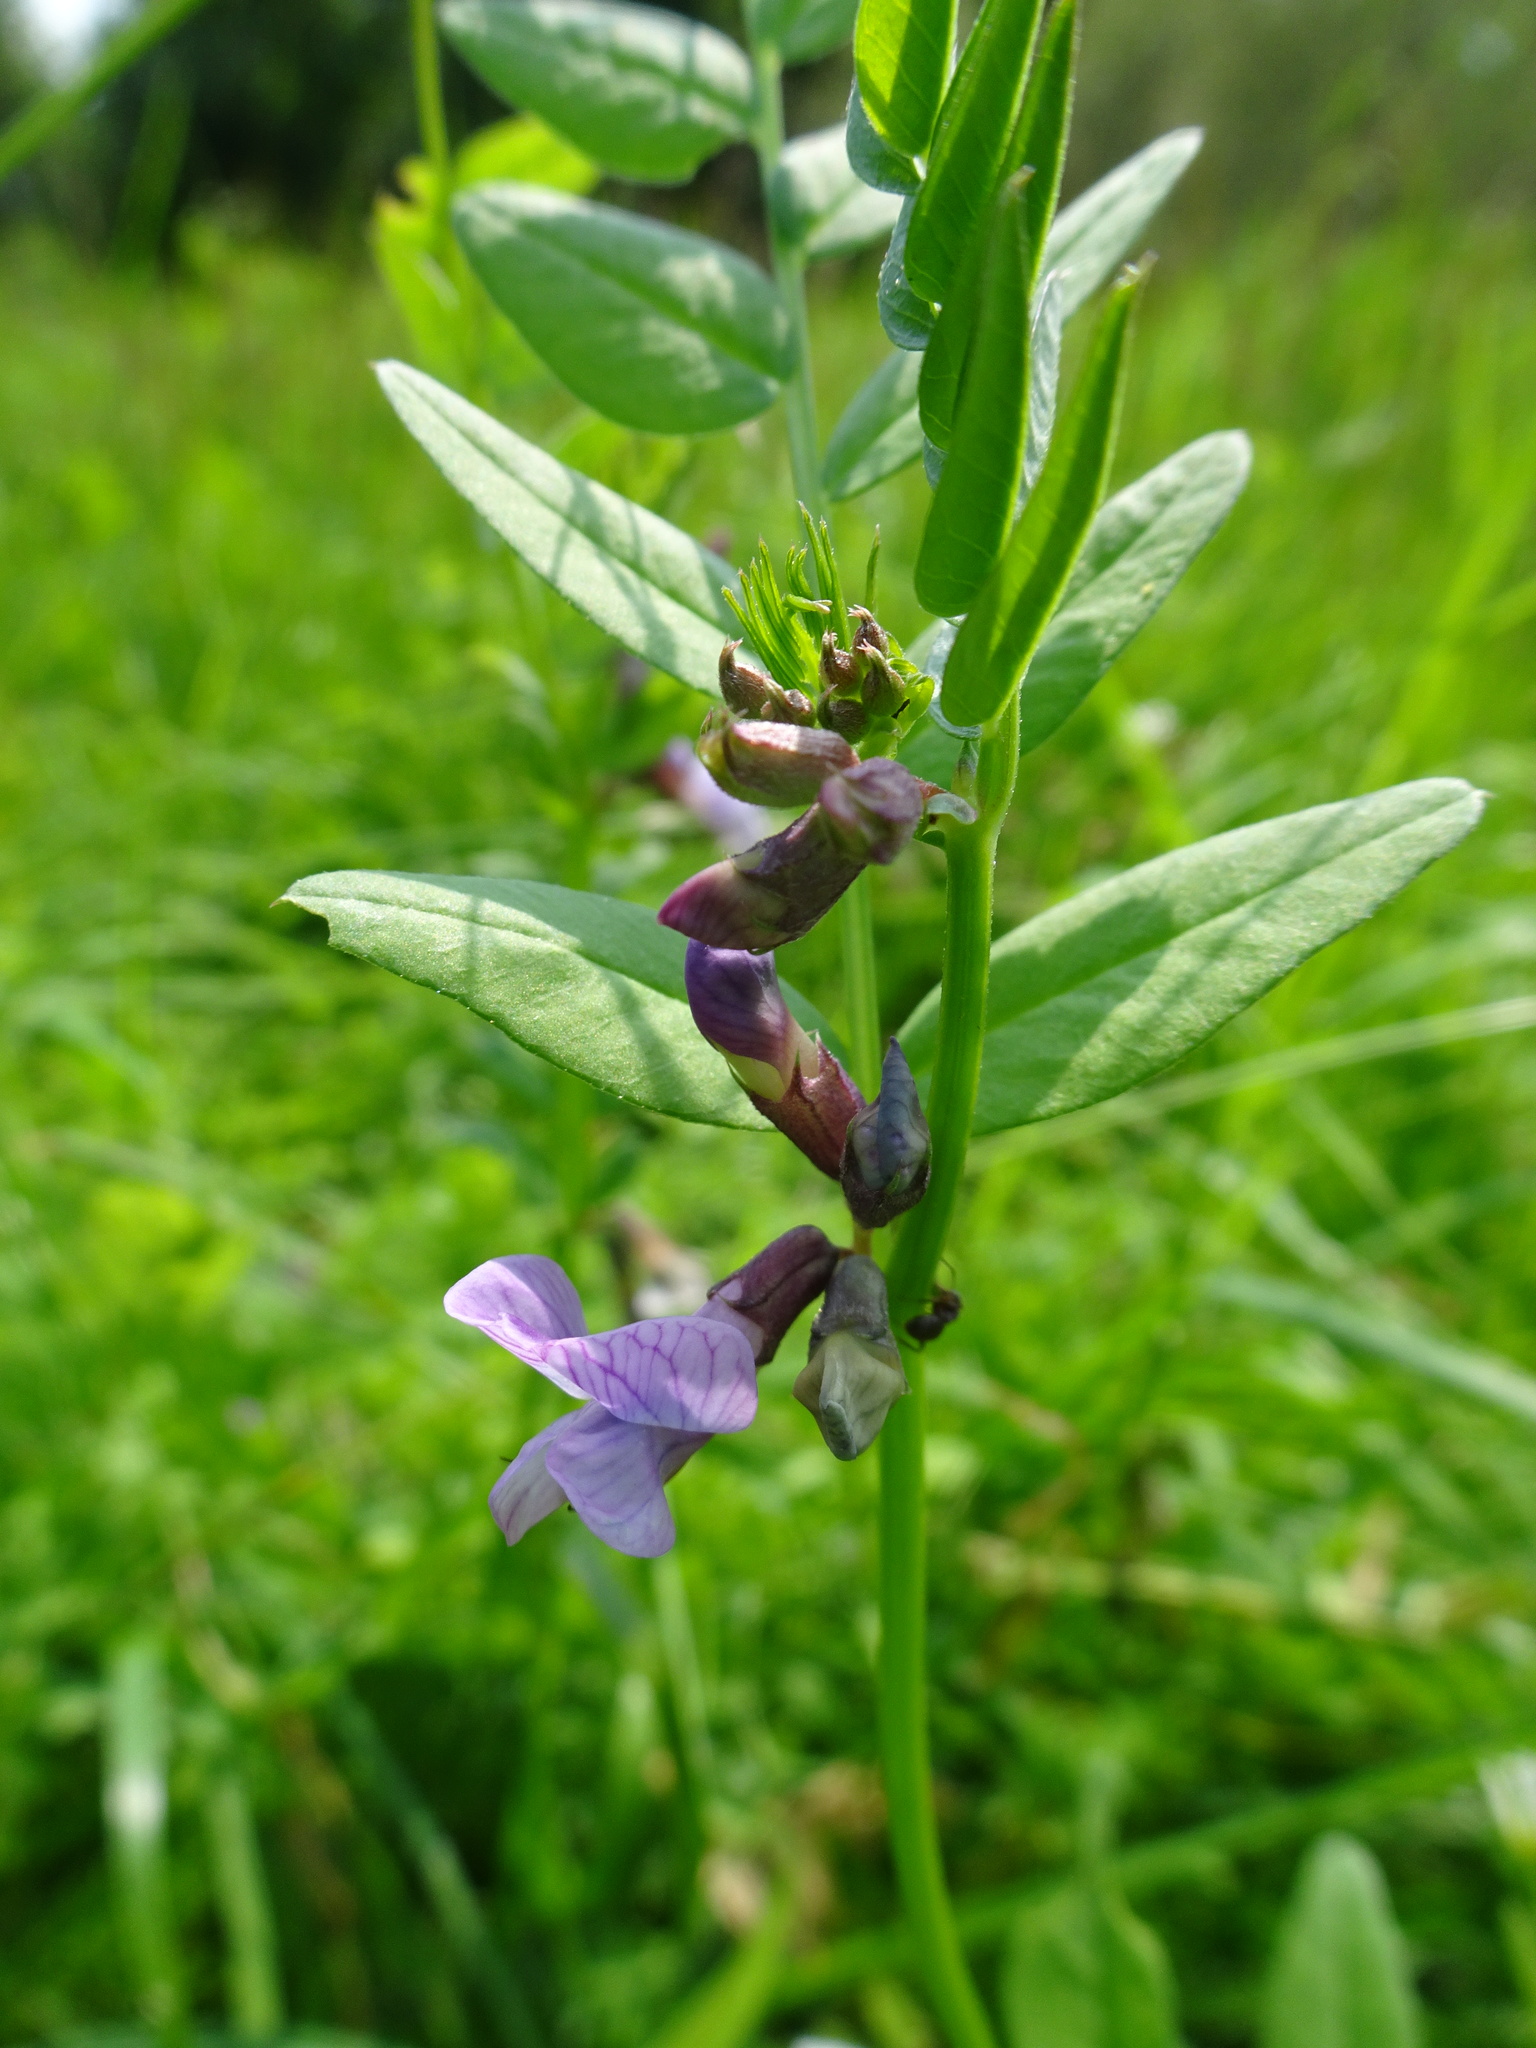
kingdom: Plantae
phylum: Tracheophyta
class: Magnoliopsida
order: Fabales
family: Fabaceae
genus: Vicia
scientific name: Vicia sepium
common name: Bush vetch
